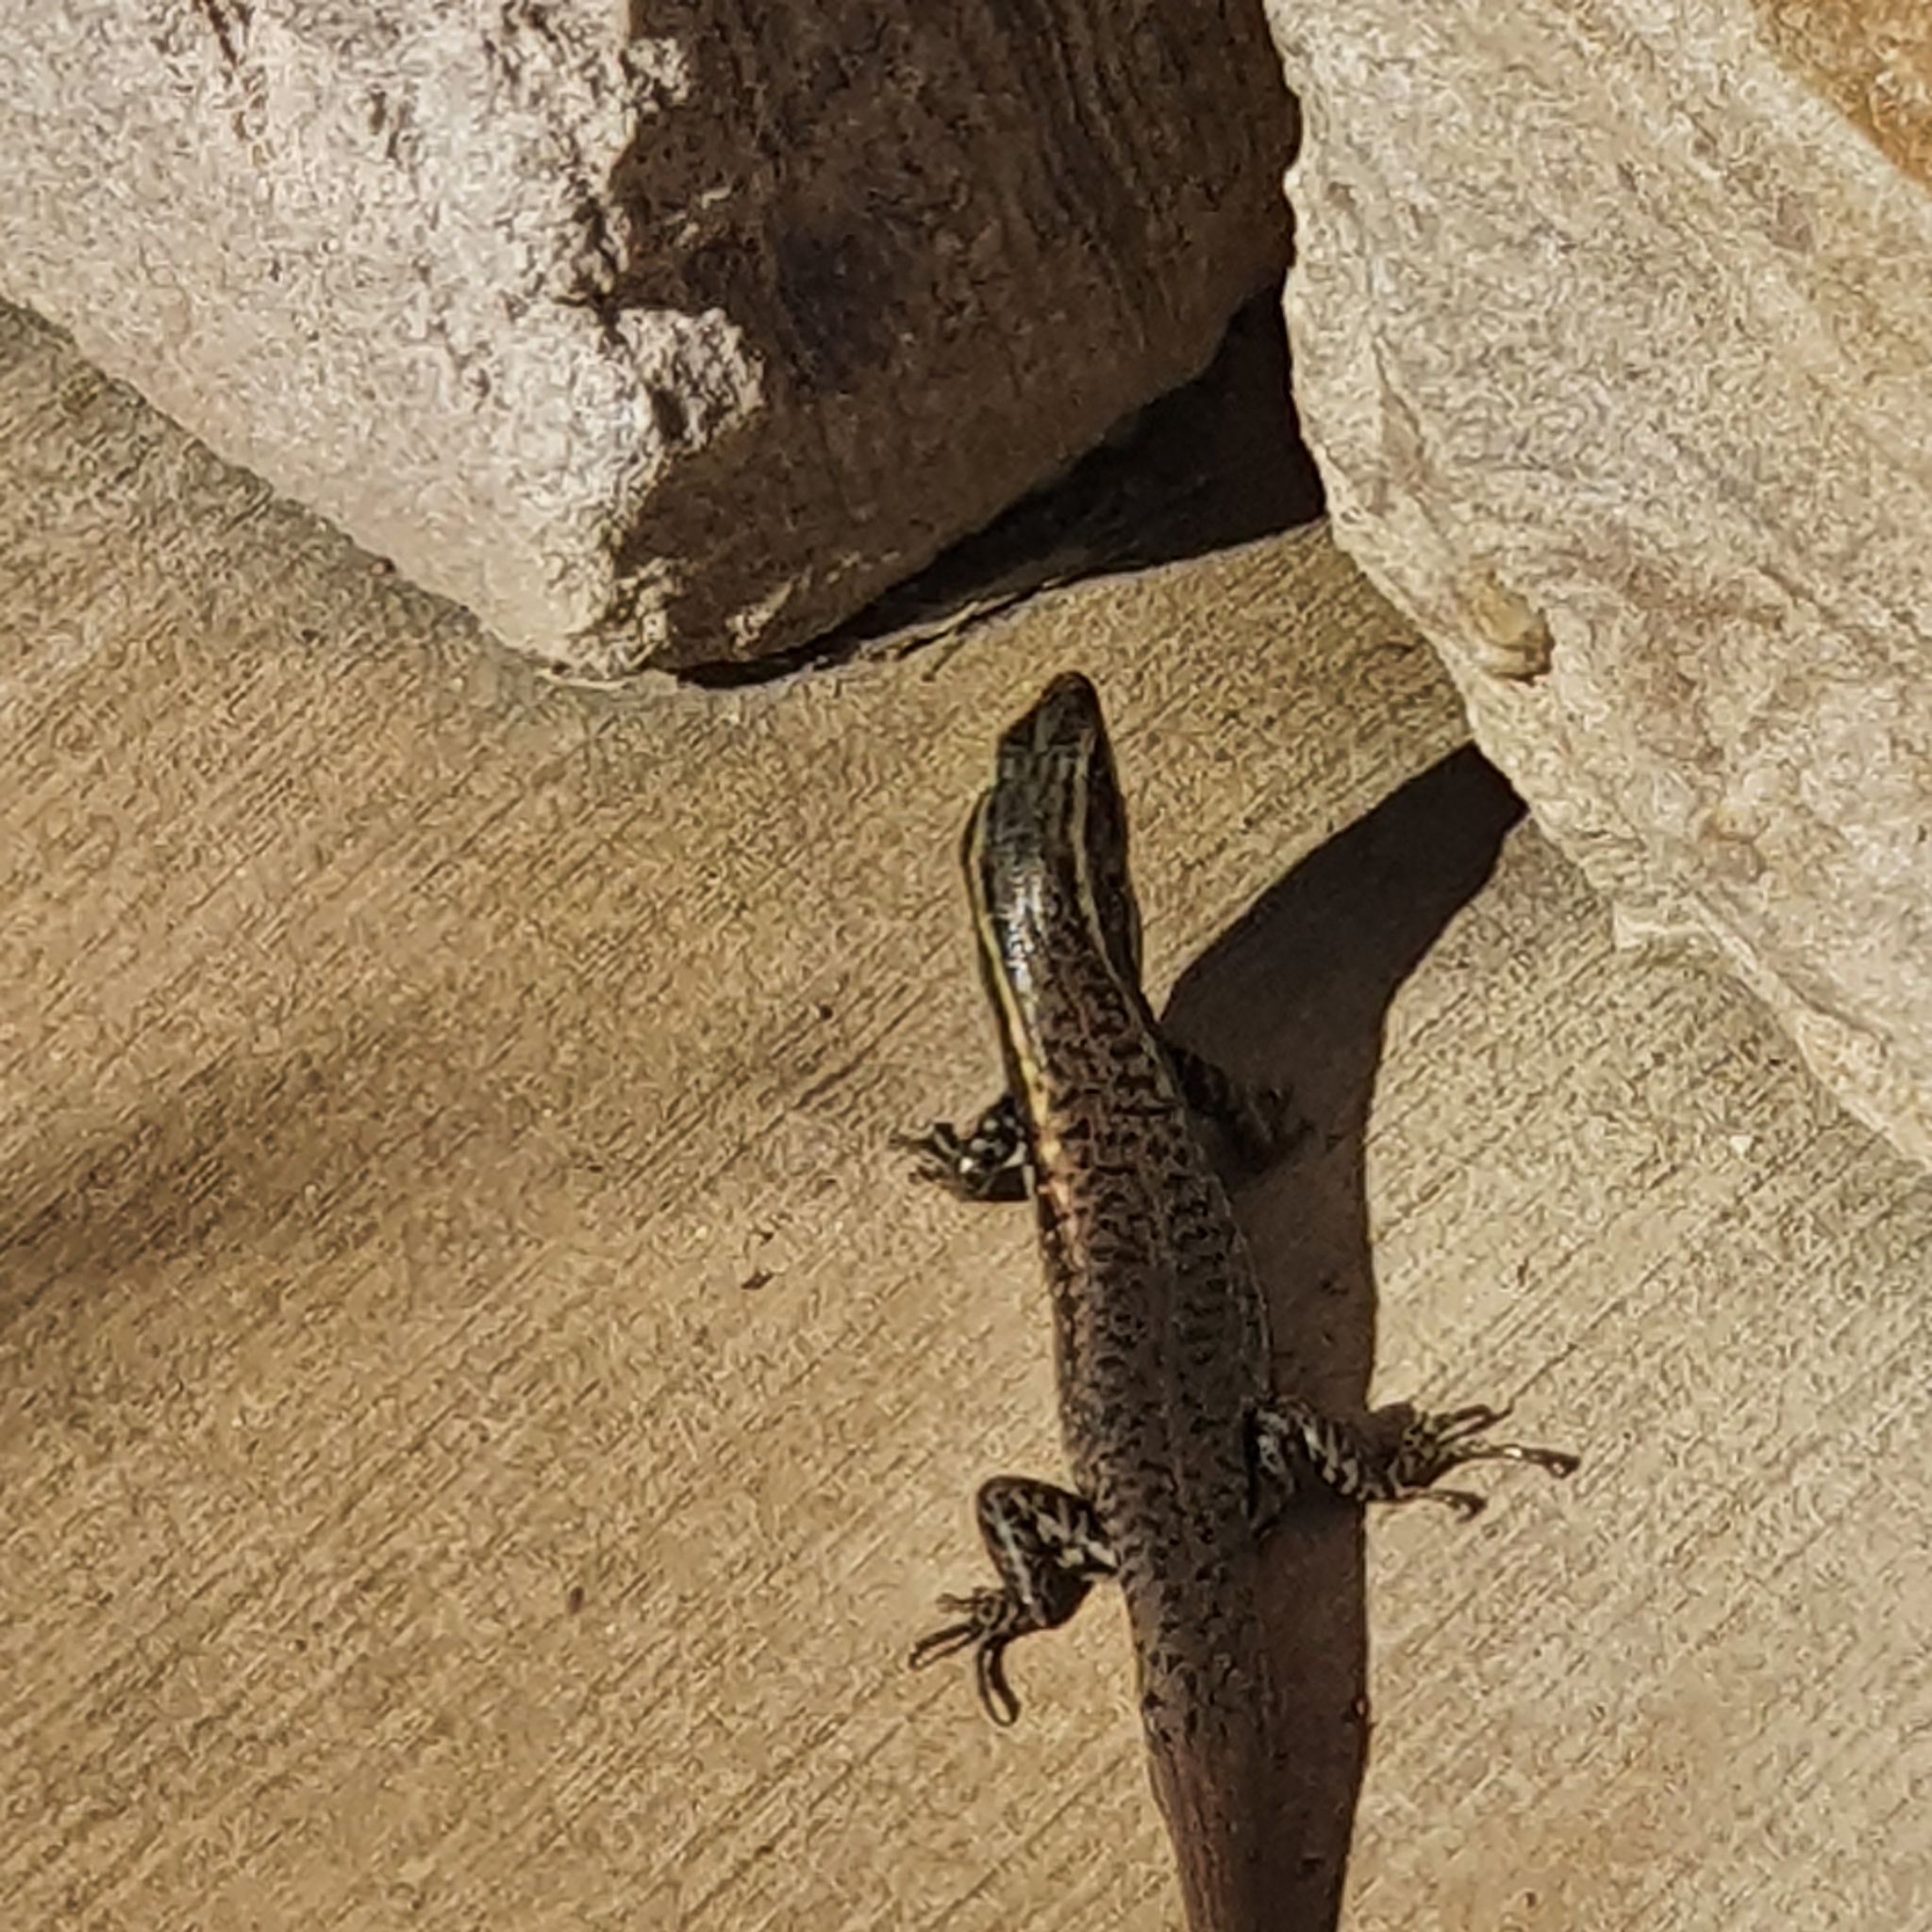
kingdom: Animalia
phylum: Chordata
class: Squamata
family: Scincidae
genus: Eulamprus
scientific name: Eulamprus quoyii
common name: Eastern water skink
